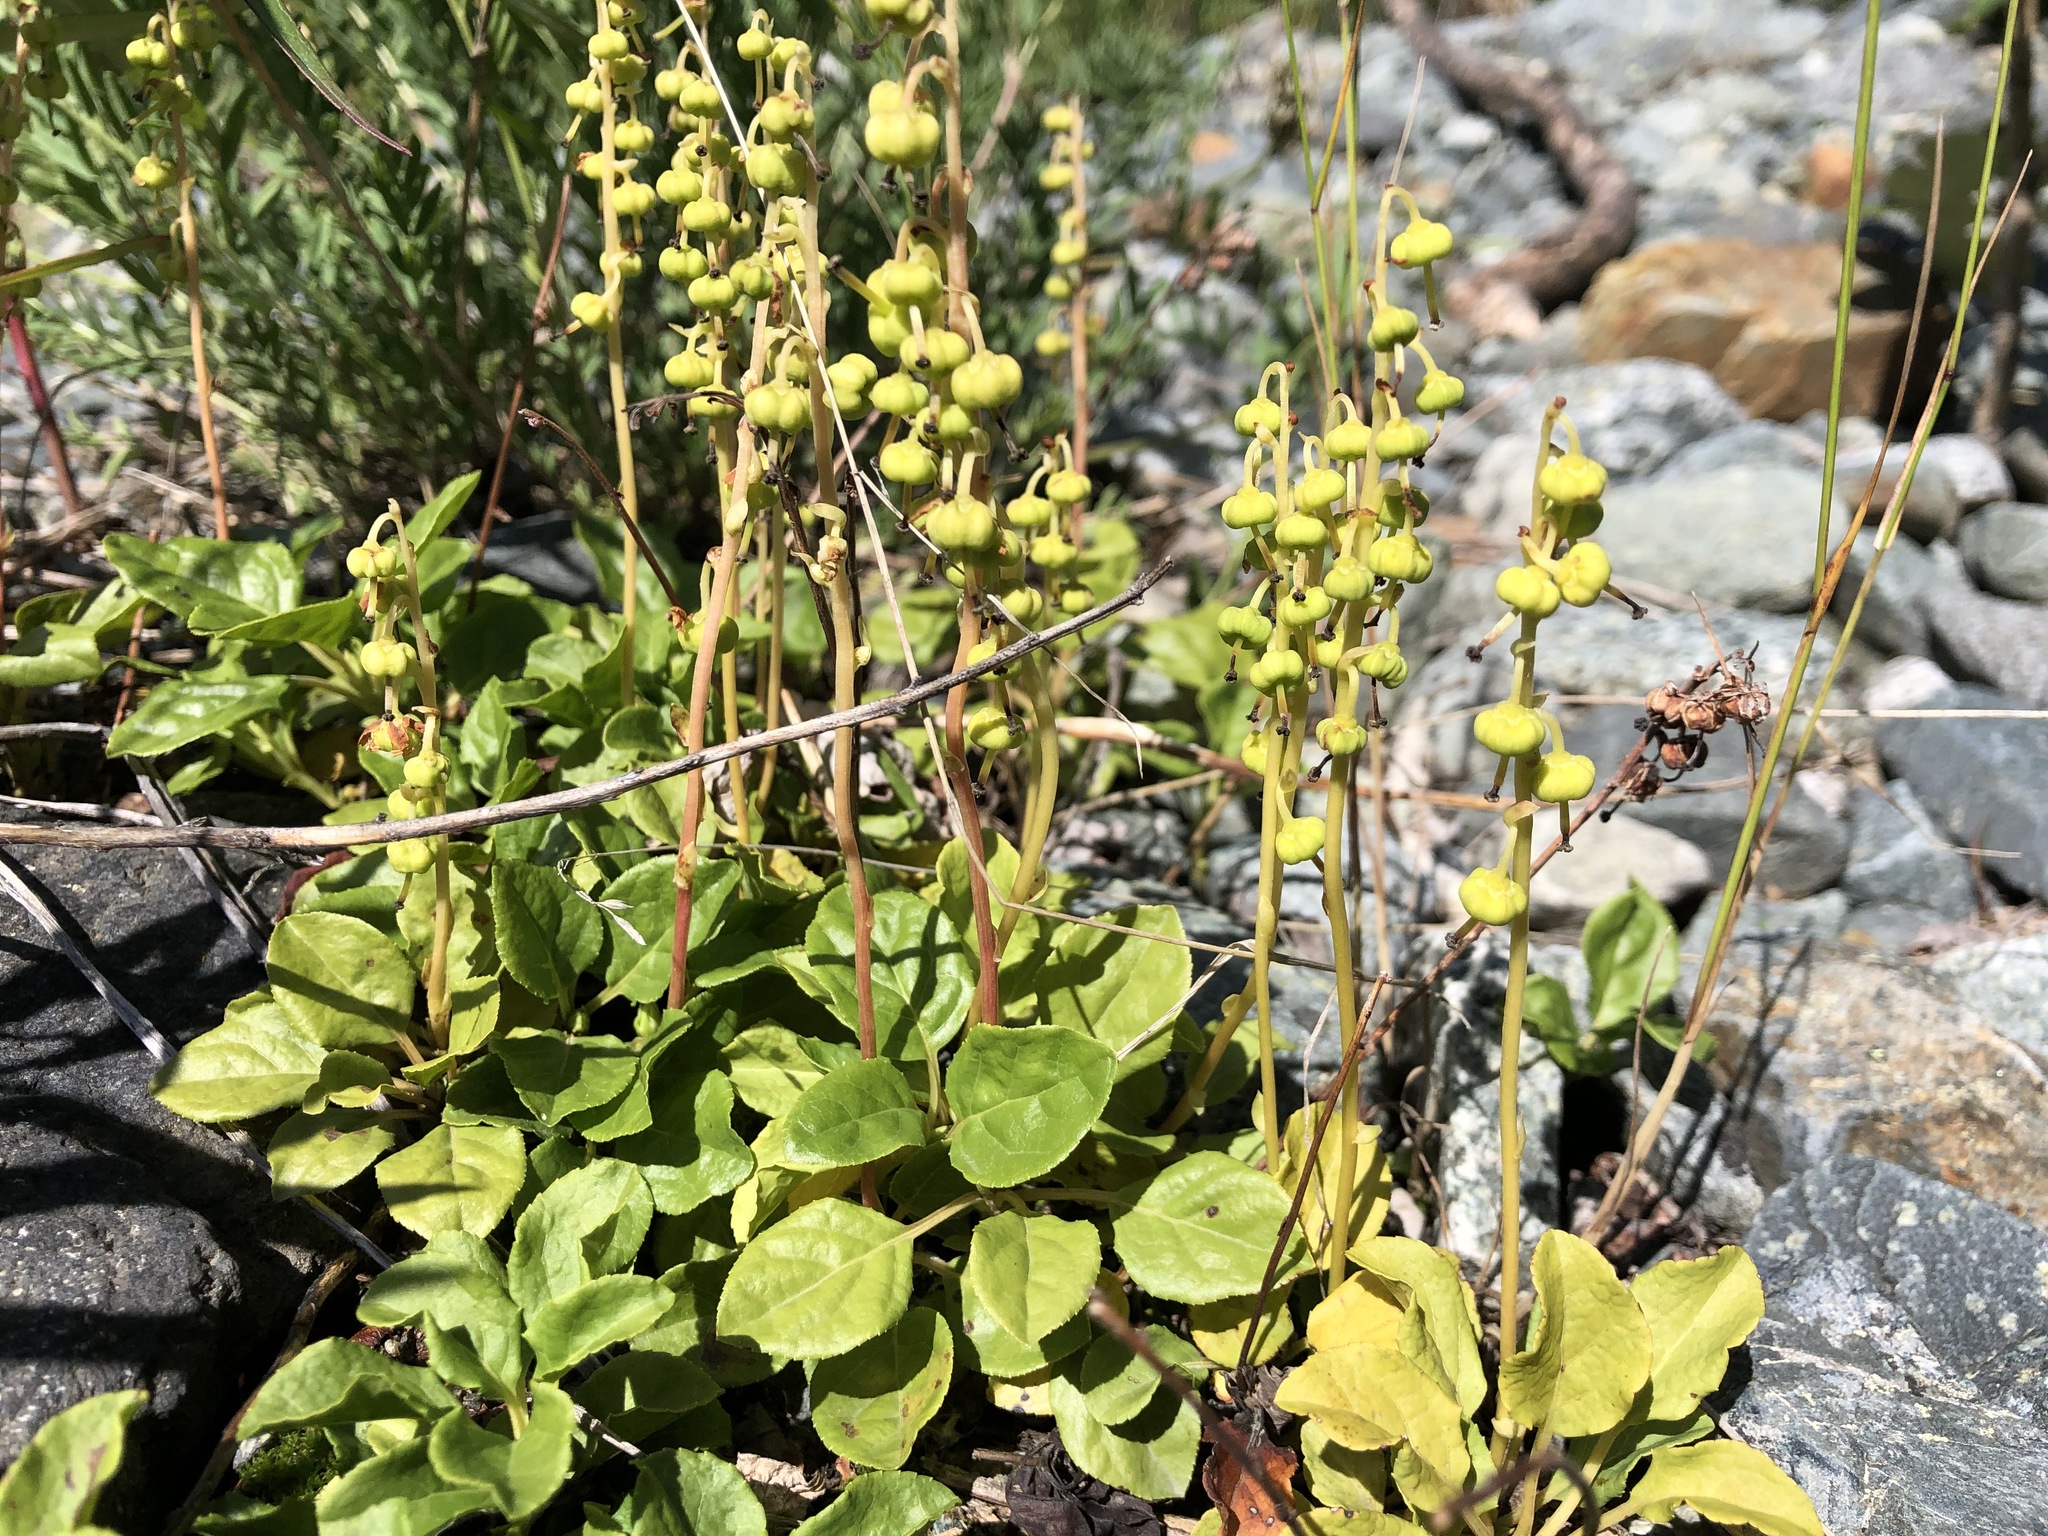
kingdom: Plantae
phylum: Tracheophyta
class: Magnoliopsida
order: Ericales
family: Ericaceae
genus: Orthilia
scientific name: Orthilia secunda
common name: One-sided orthilia
